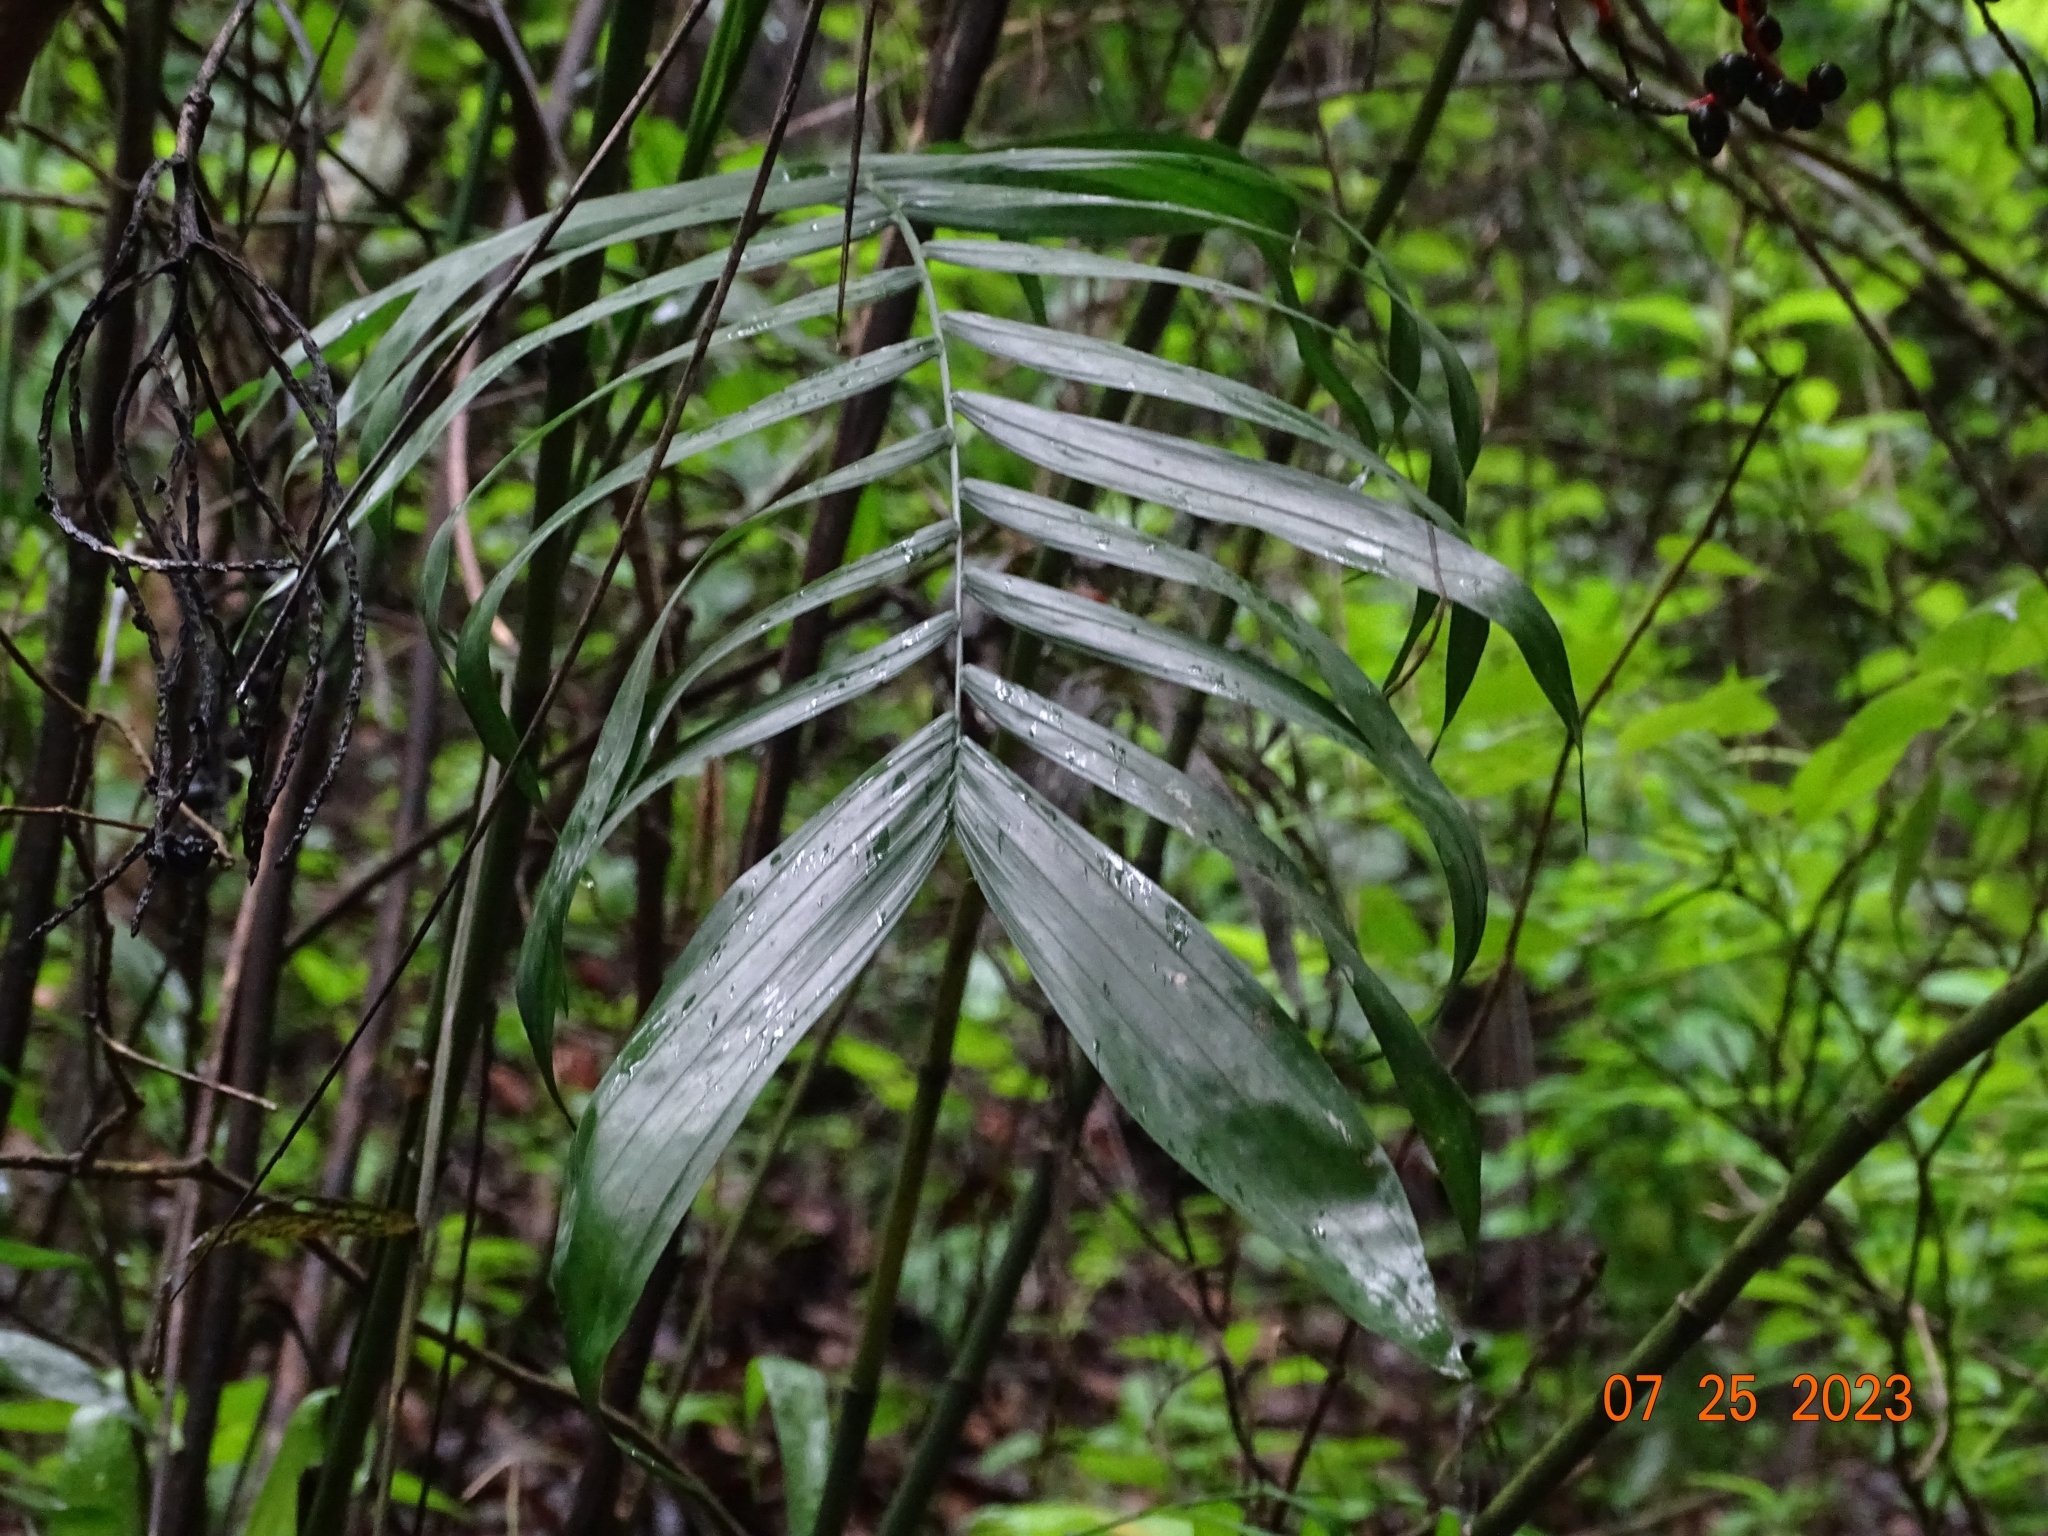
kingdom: Plantae
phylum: Tracheophyta
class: Liliopsida
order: Arecales
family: Arecaceae
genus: Chamaedorea
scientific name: Chamaedorea pochutlensis
